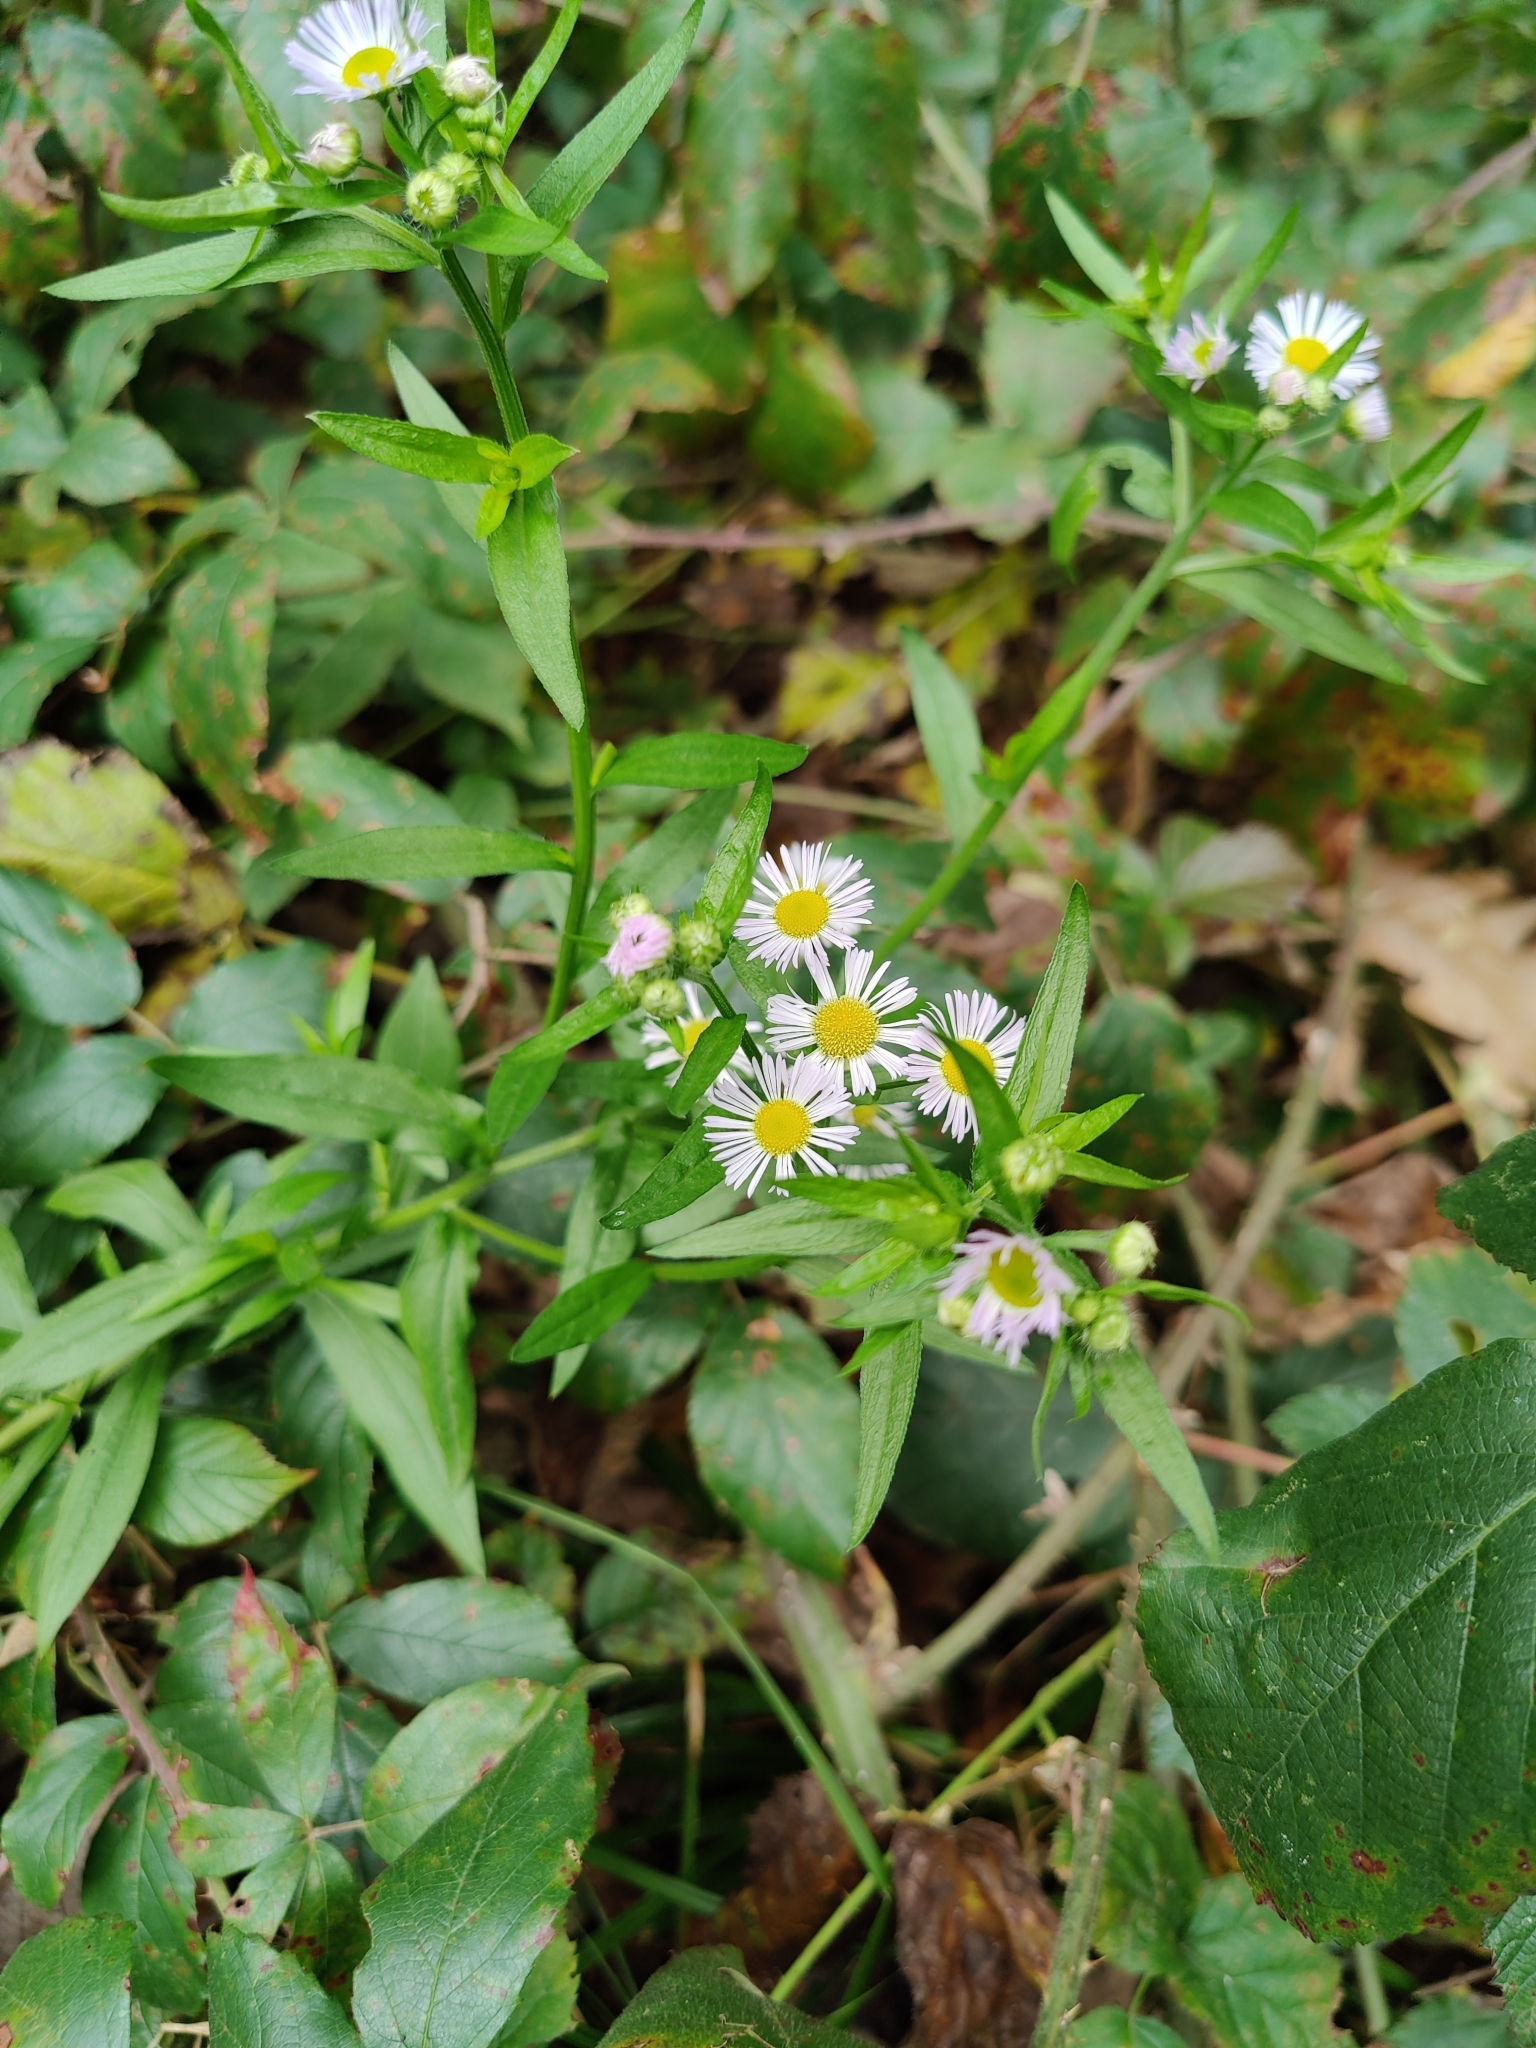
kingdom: Plantae
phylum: Tracheophyta
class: Magnoliopsida
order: Asterales
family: Asteraceae
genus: Erigeron
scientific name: Erigeron annuus
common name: Tall fleabane
